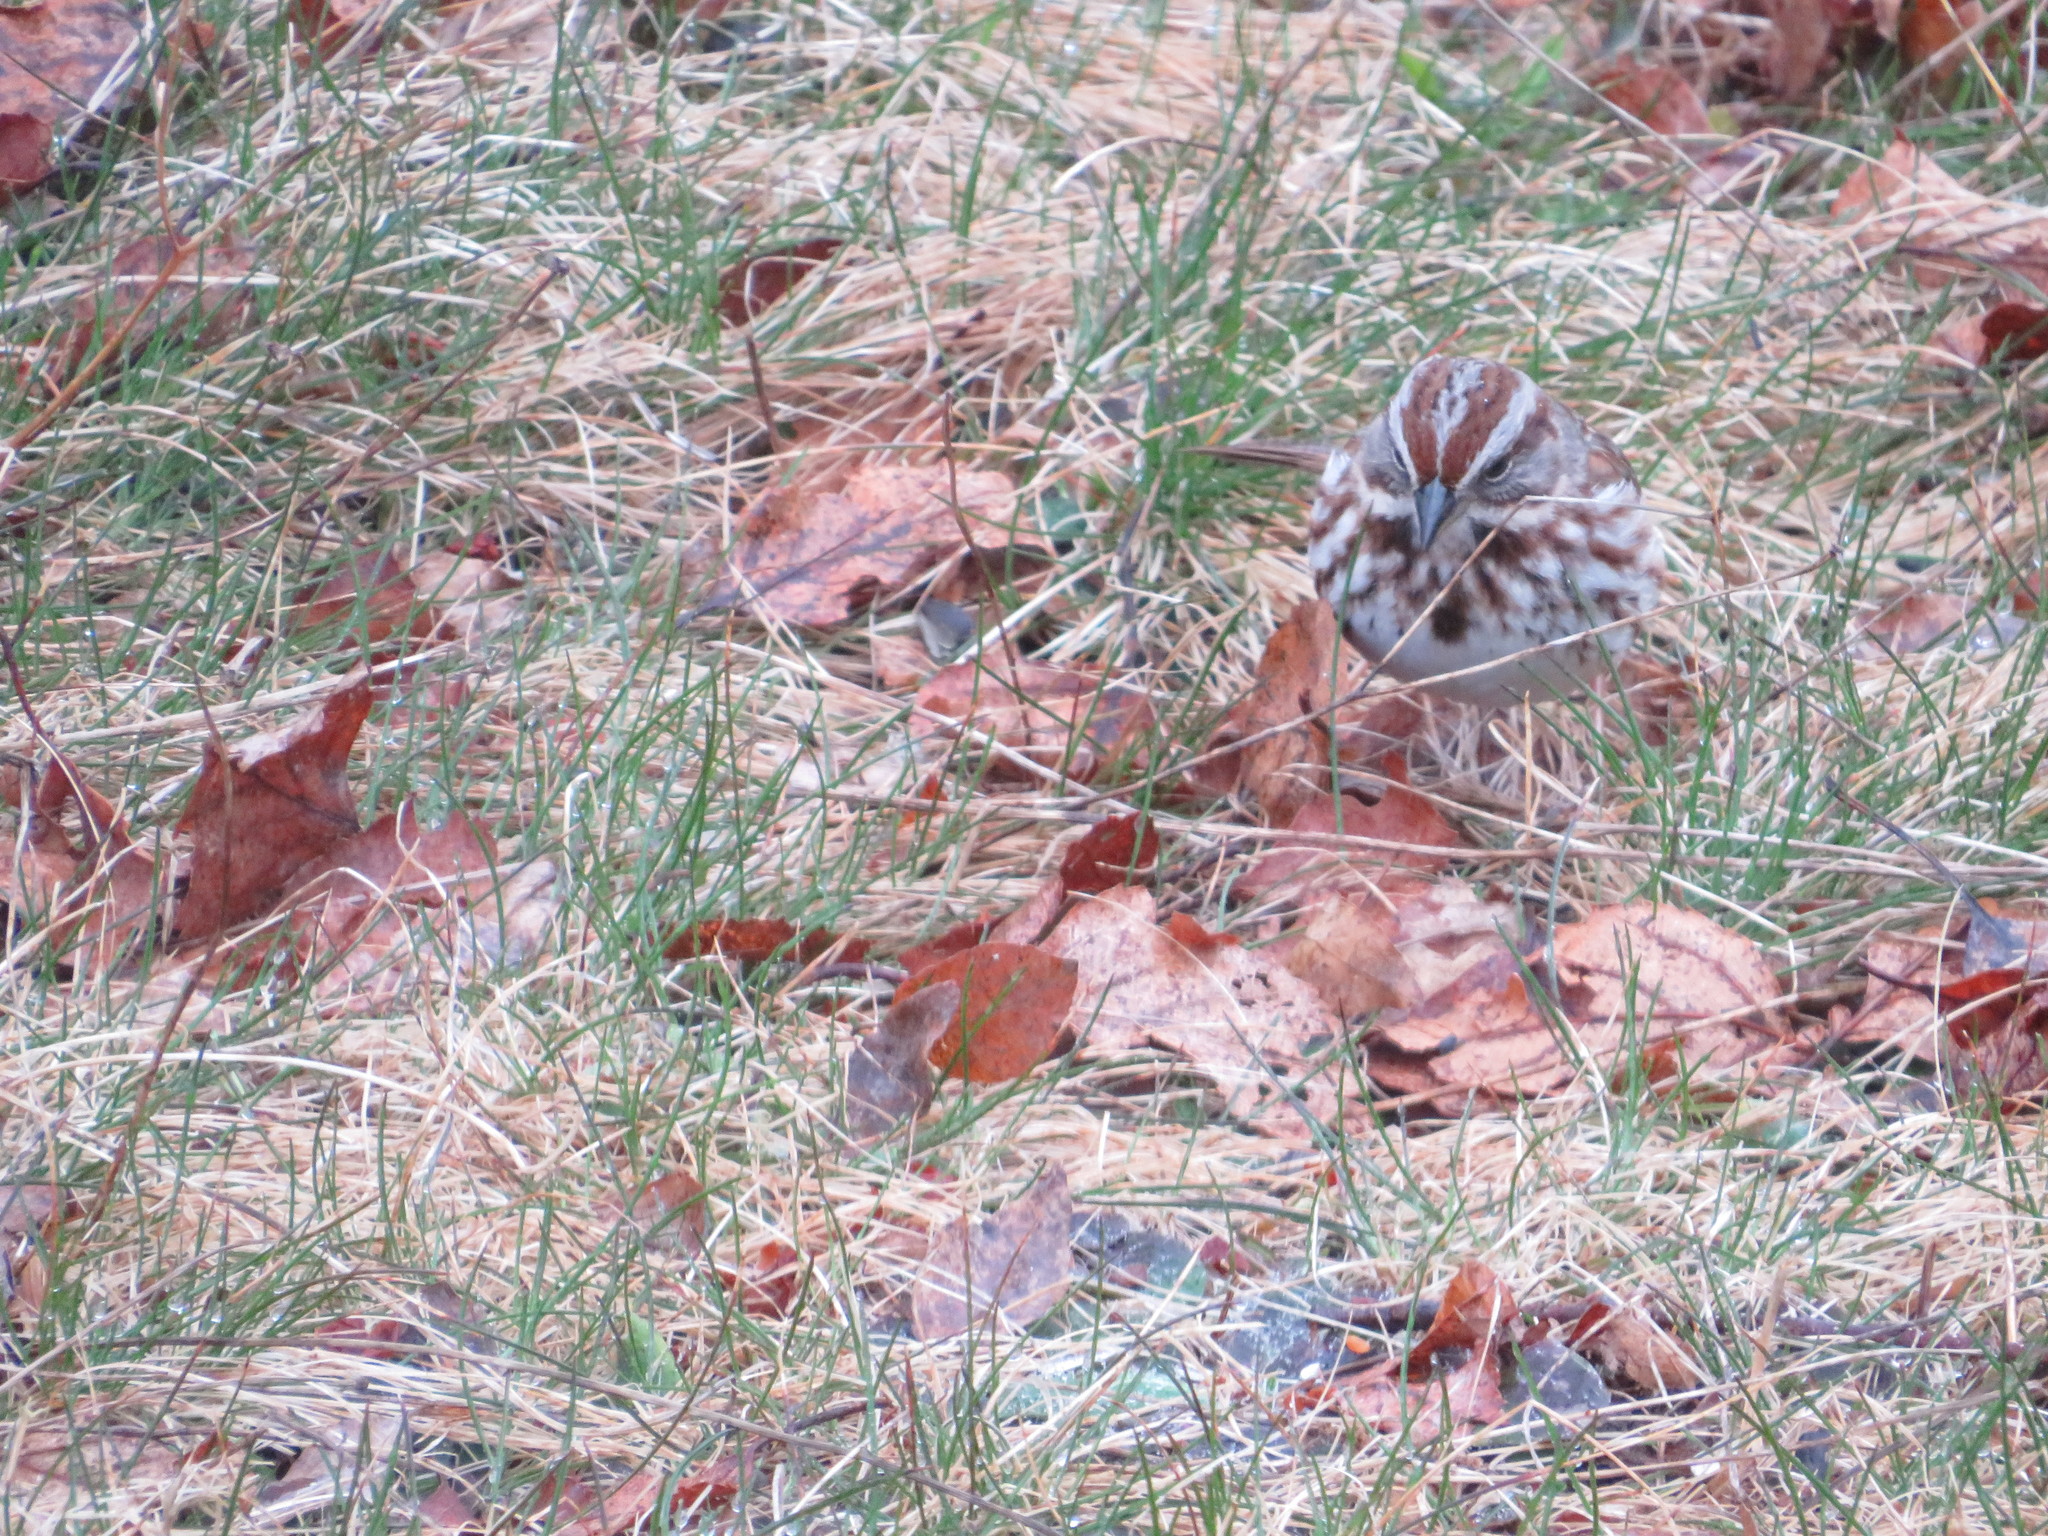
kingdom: Animalia
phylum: Chordata
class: Aves
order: Passeriformes
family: Passerellidae
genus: Melospiza
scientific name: Melospiza melodia
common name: Song sparrow
